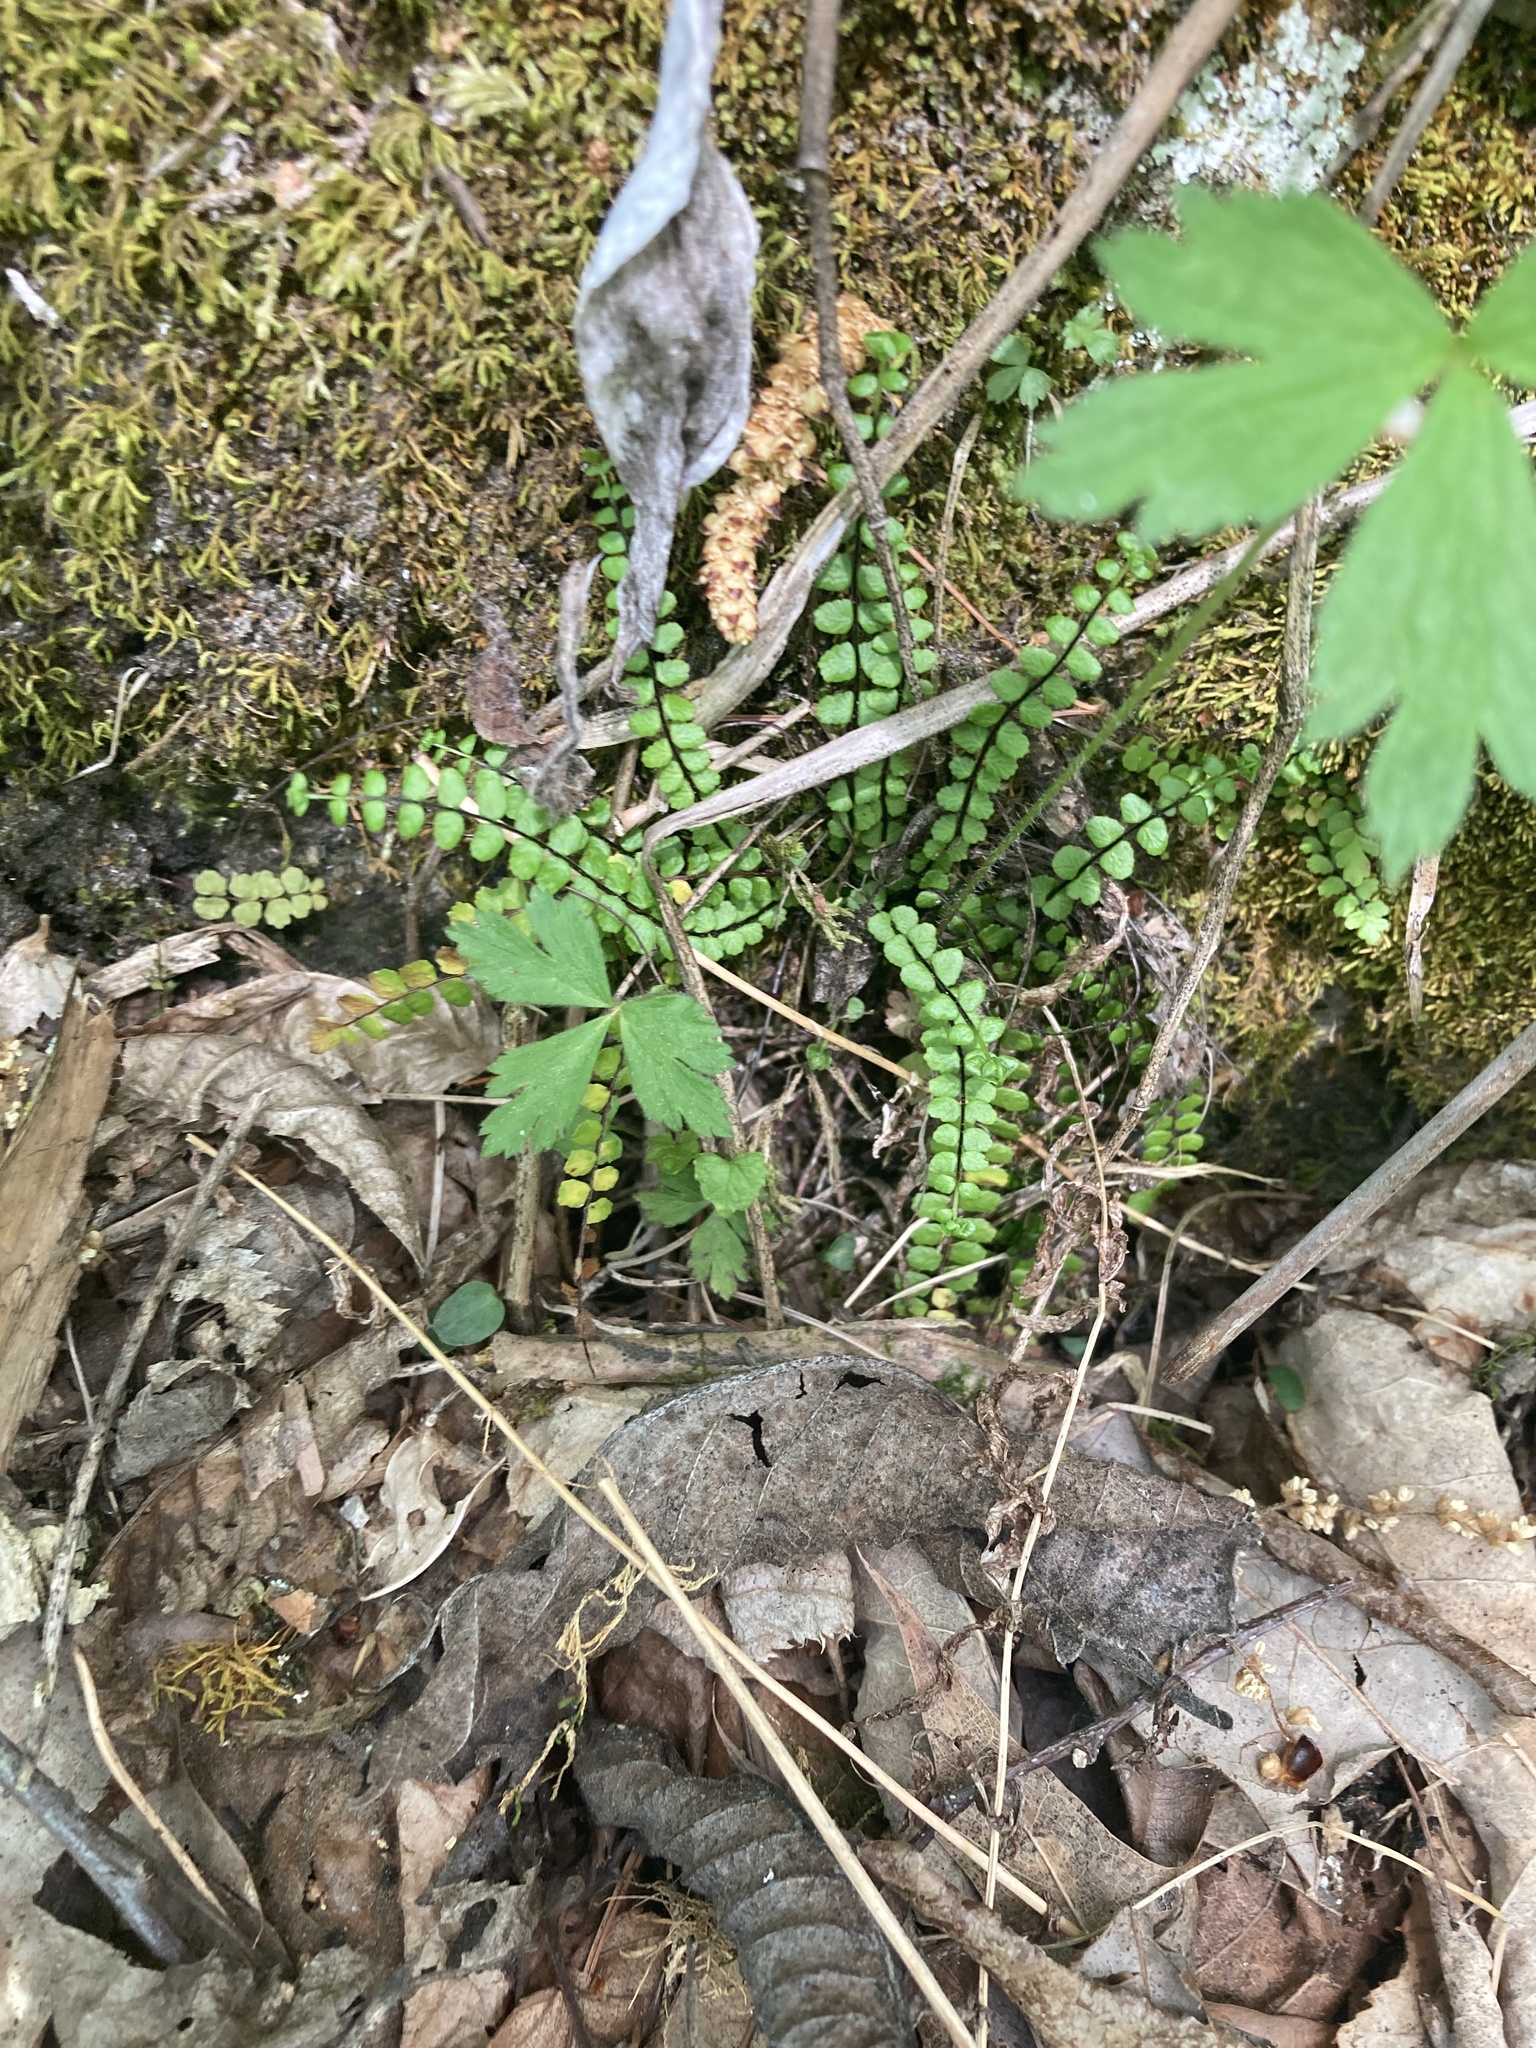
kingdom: Plantae
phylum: Tracheophyta
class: Polypodiopsida
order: Polypodiales
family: Aspleniaceae
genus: Asplenium
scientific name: Asplenium trichomanes
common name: Maidenhair spleenwort
